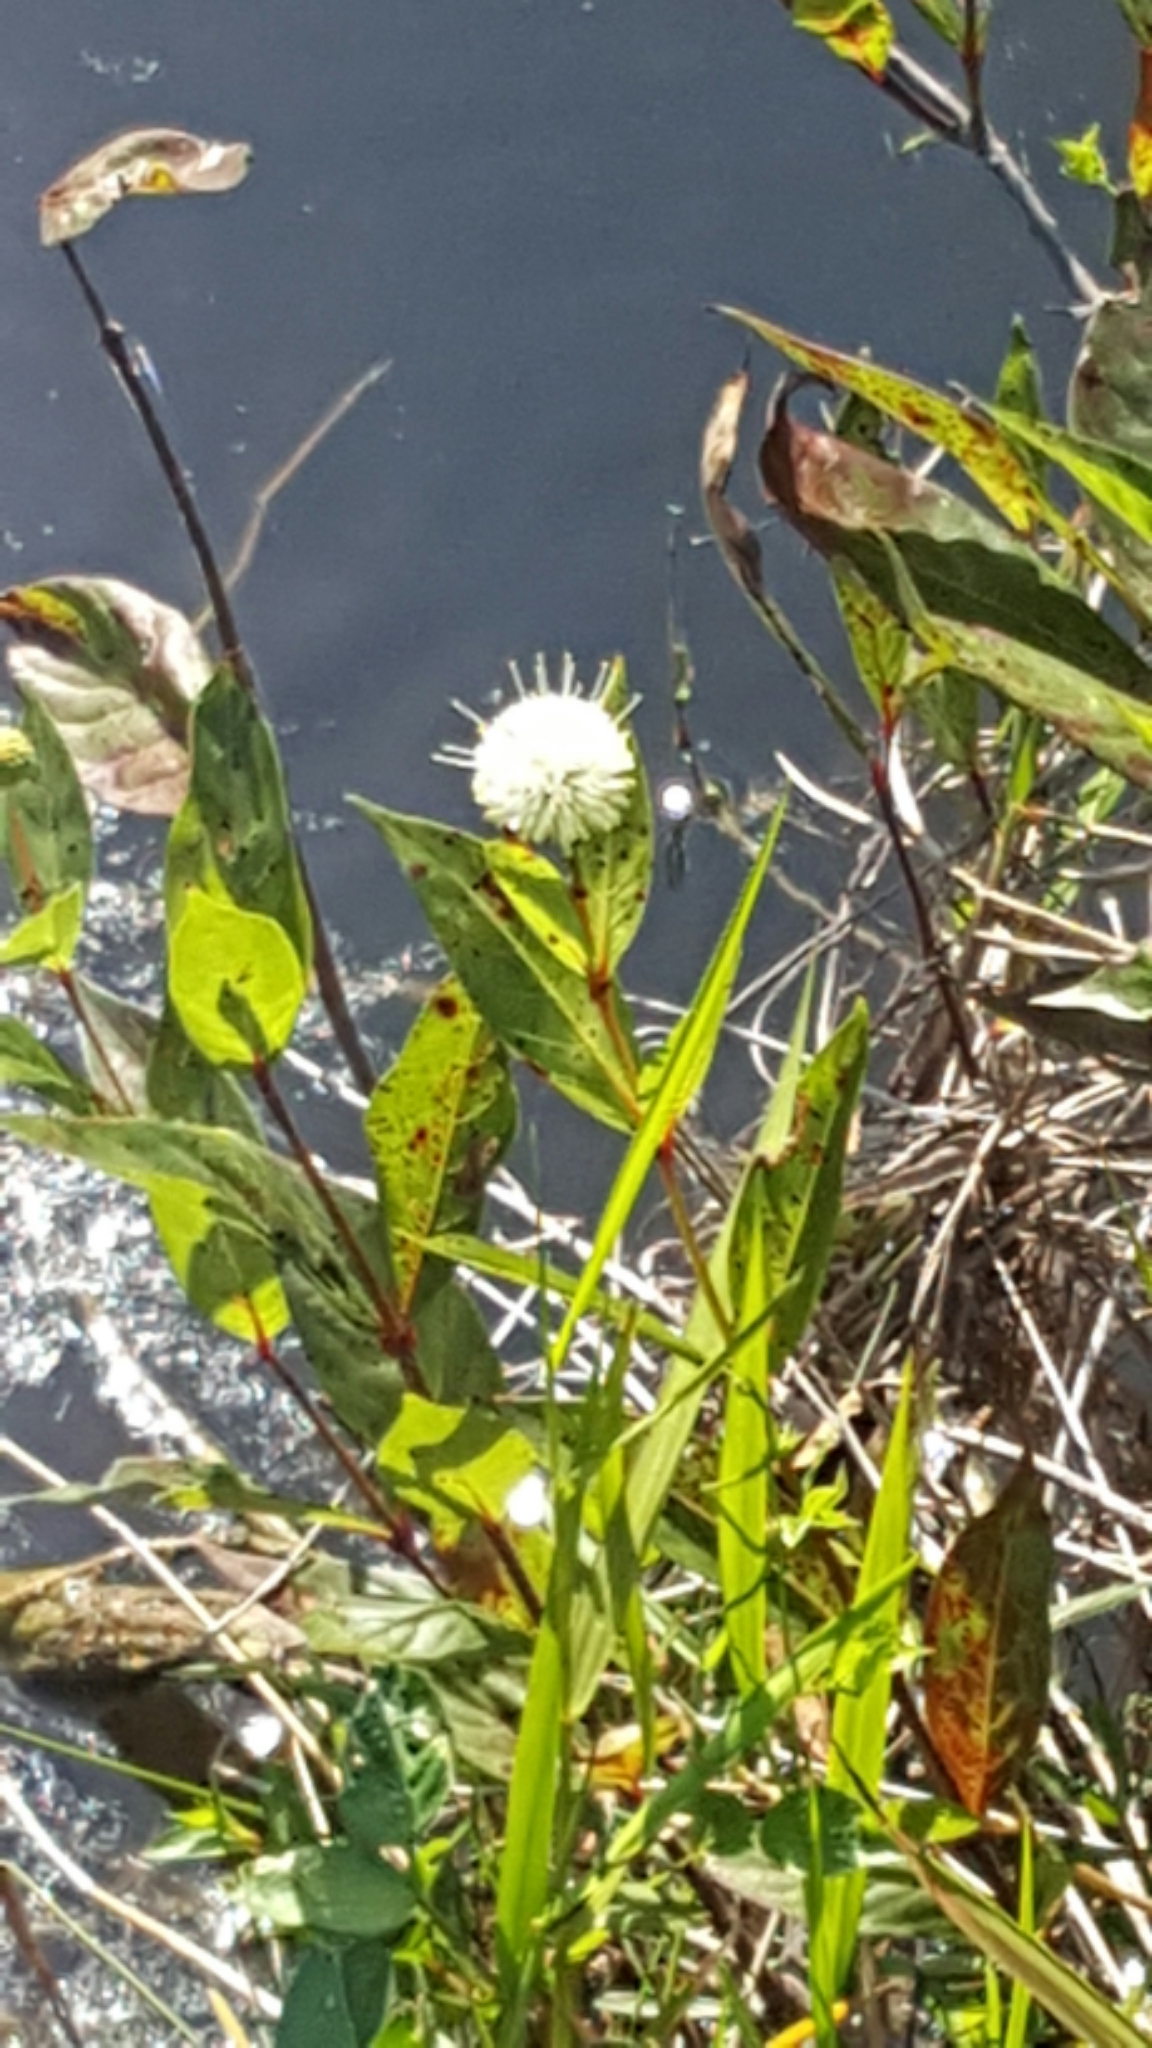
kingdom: Plantae
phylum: Tracheophyta
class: Magnoliopsida
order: Gentianales
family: Rubiaceae
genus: Cephalanthus
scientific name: Cephalanthus occidentalis
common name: Button-willow
